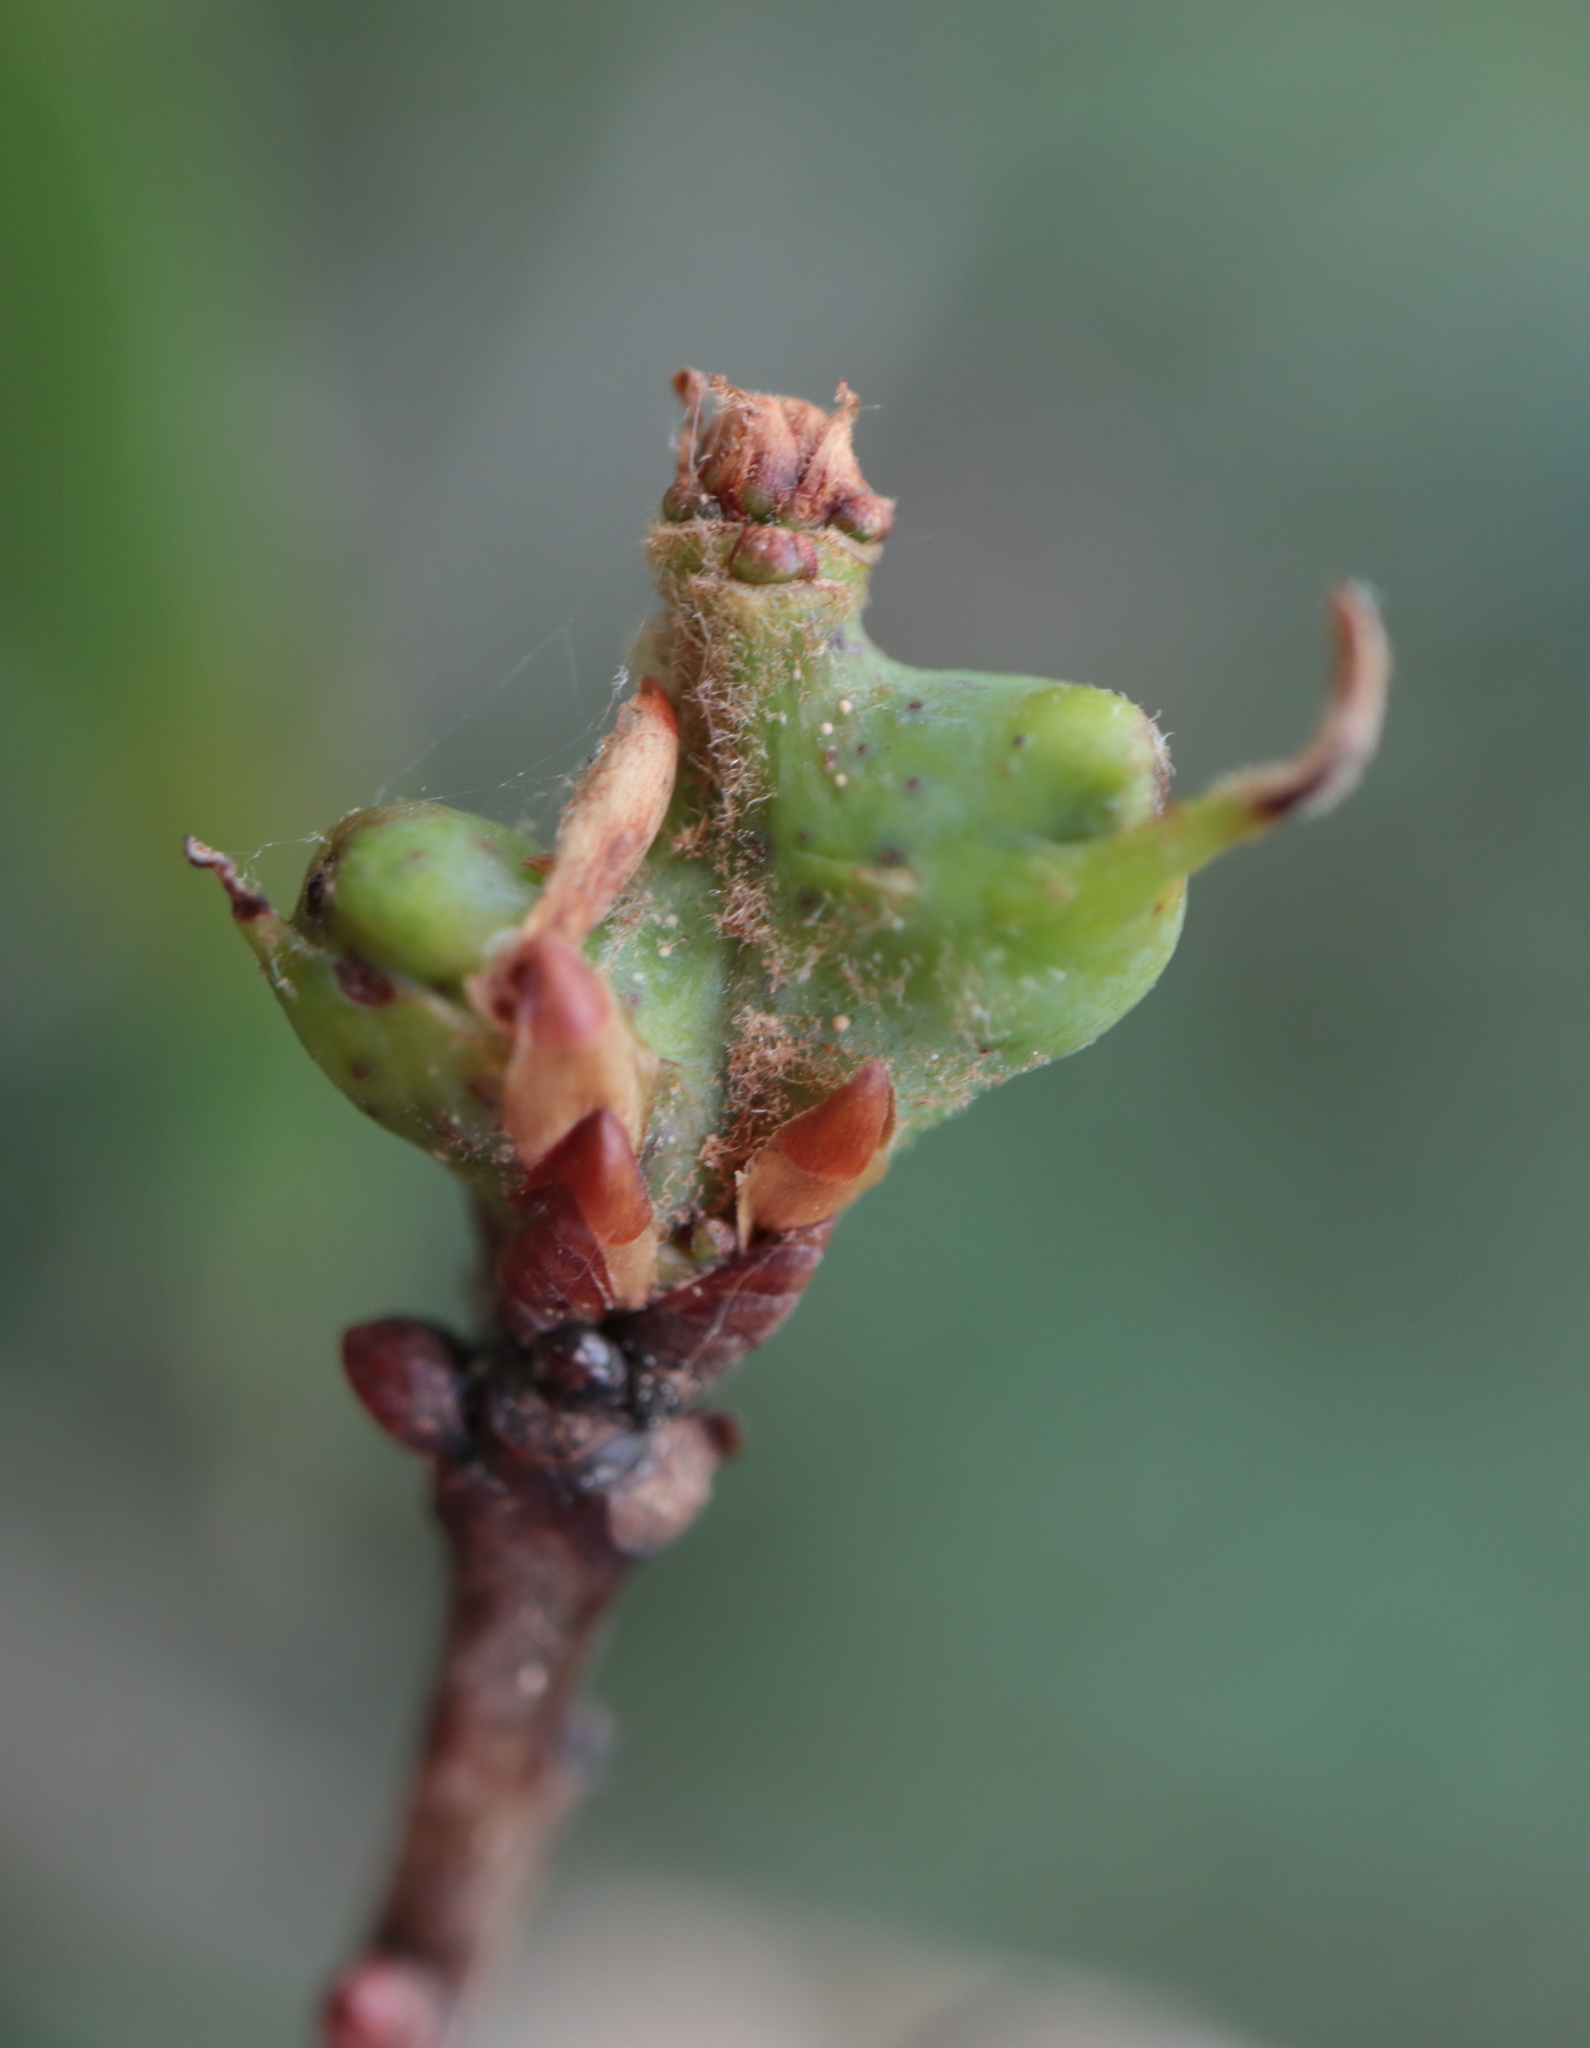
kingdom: Animalia
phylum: Arthropoda
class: Insecta
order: Hymenoptera
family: Cynipidae
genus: Neuroterus
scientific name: Neuroterus quercusbaccarum
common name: Common spangle gall
